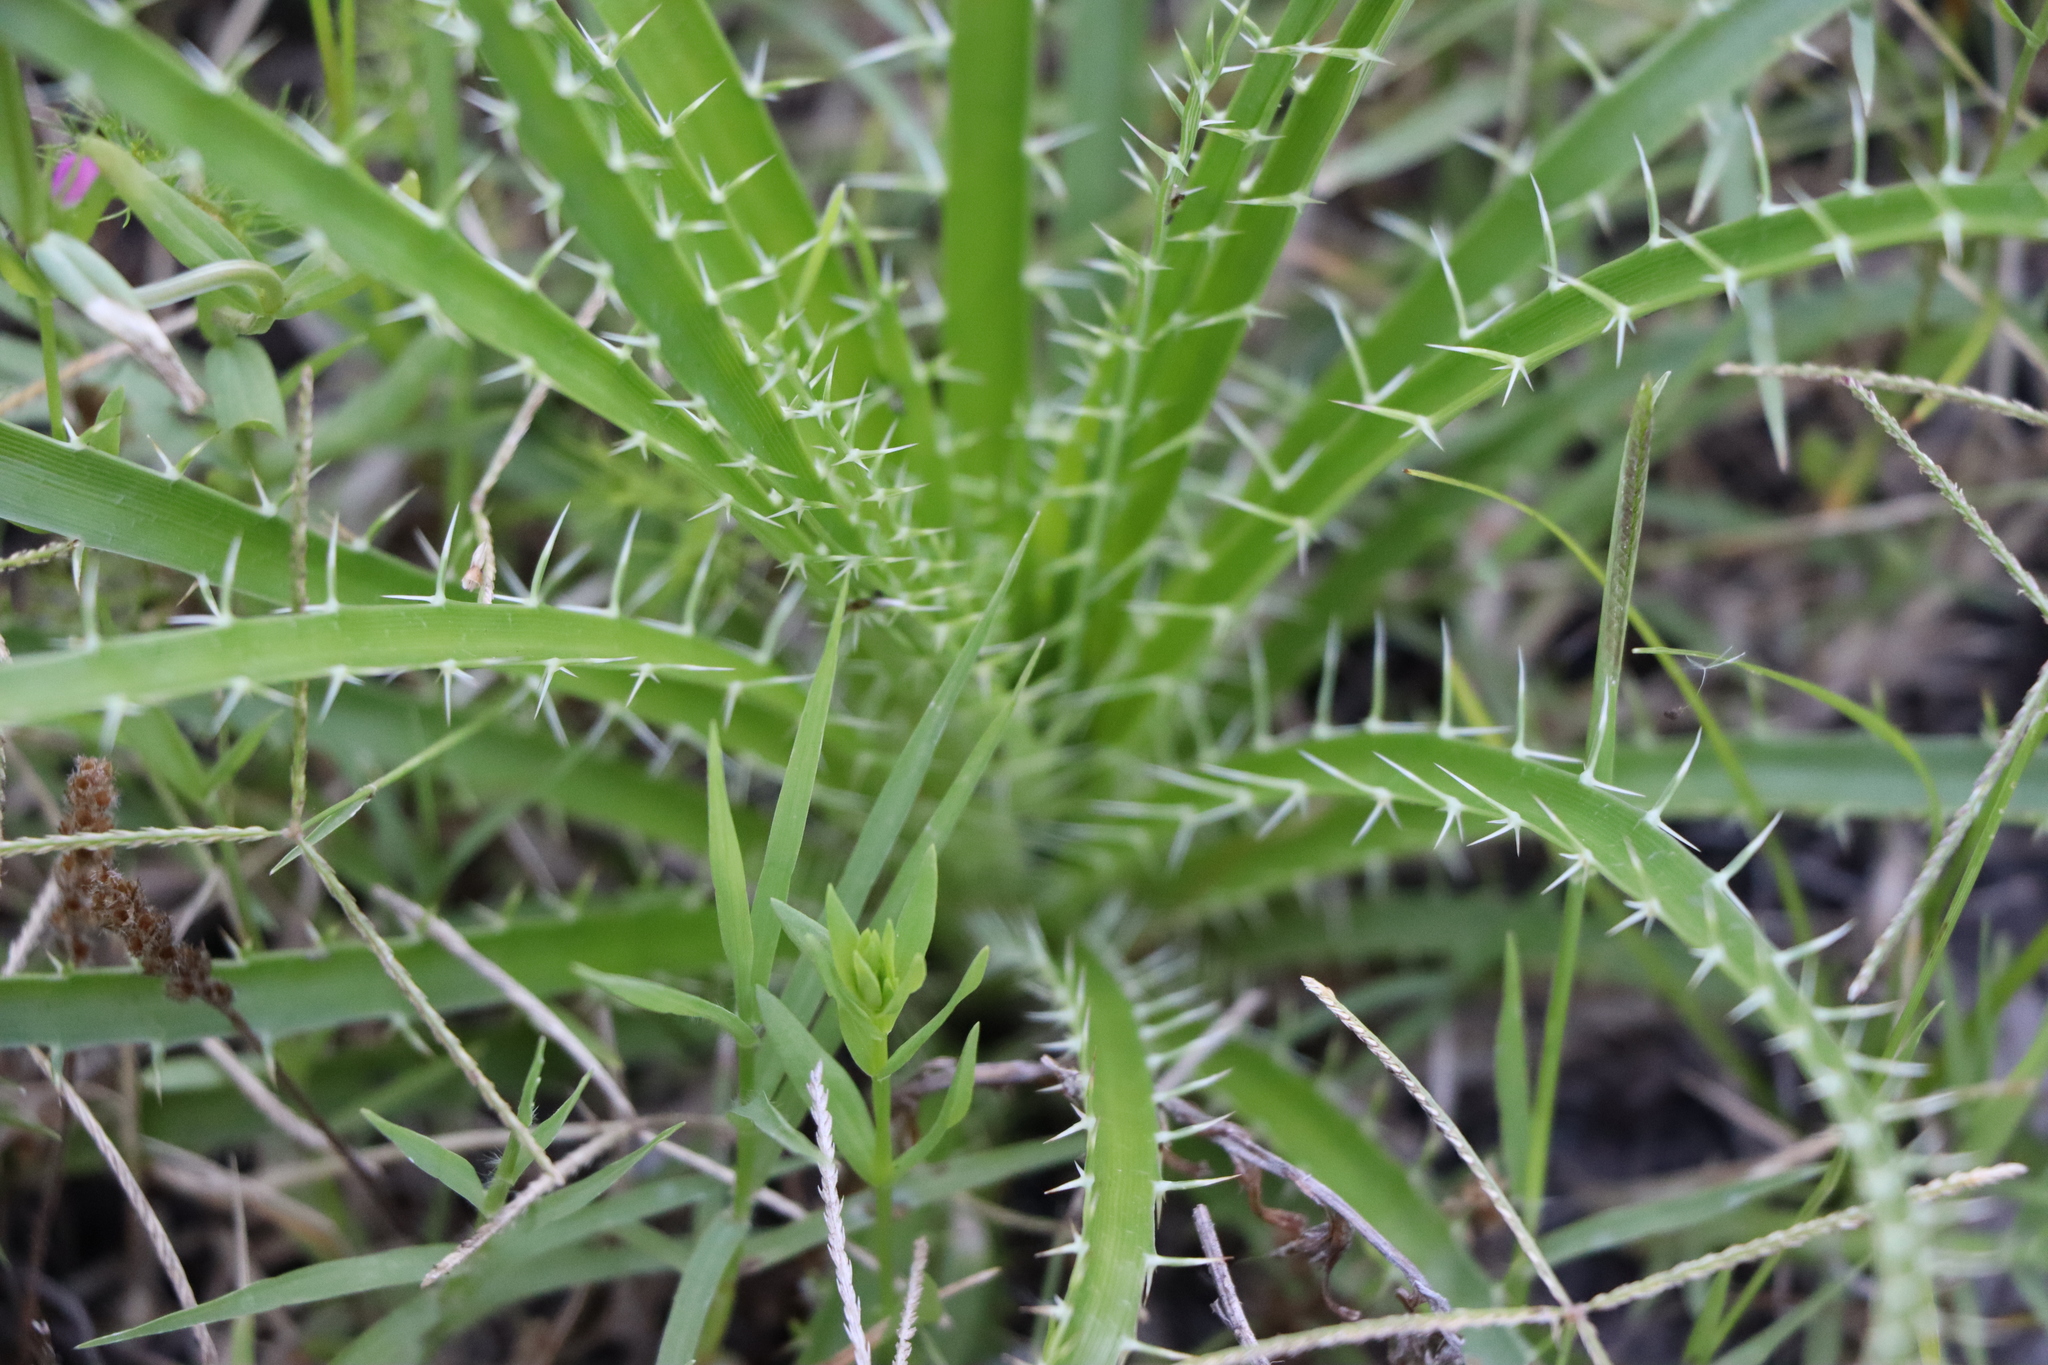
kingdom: Plantae
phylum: Tracheophyta
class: Magnoliopsida
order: Apiales
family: Apiaceae
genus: Eryngium
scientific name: Eryngium horridum
